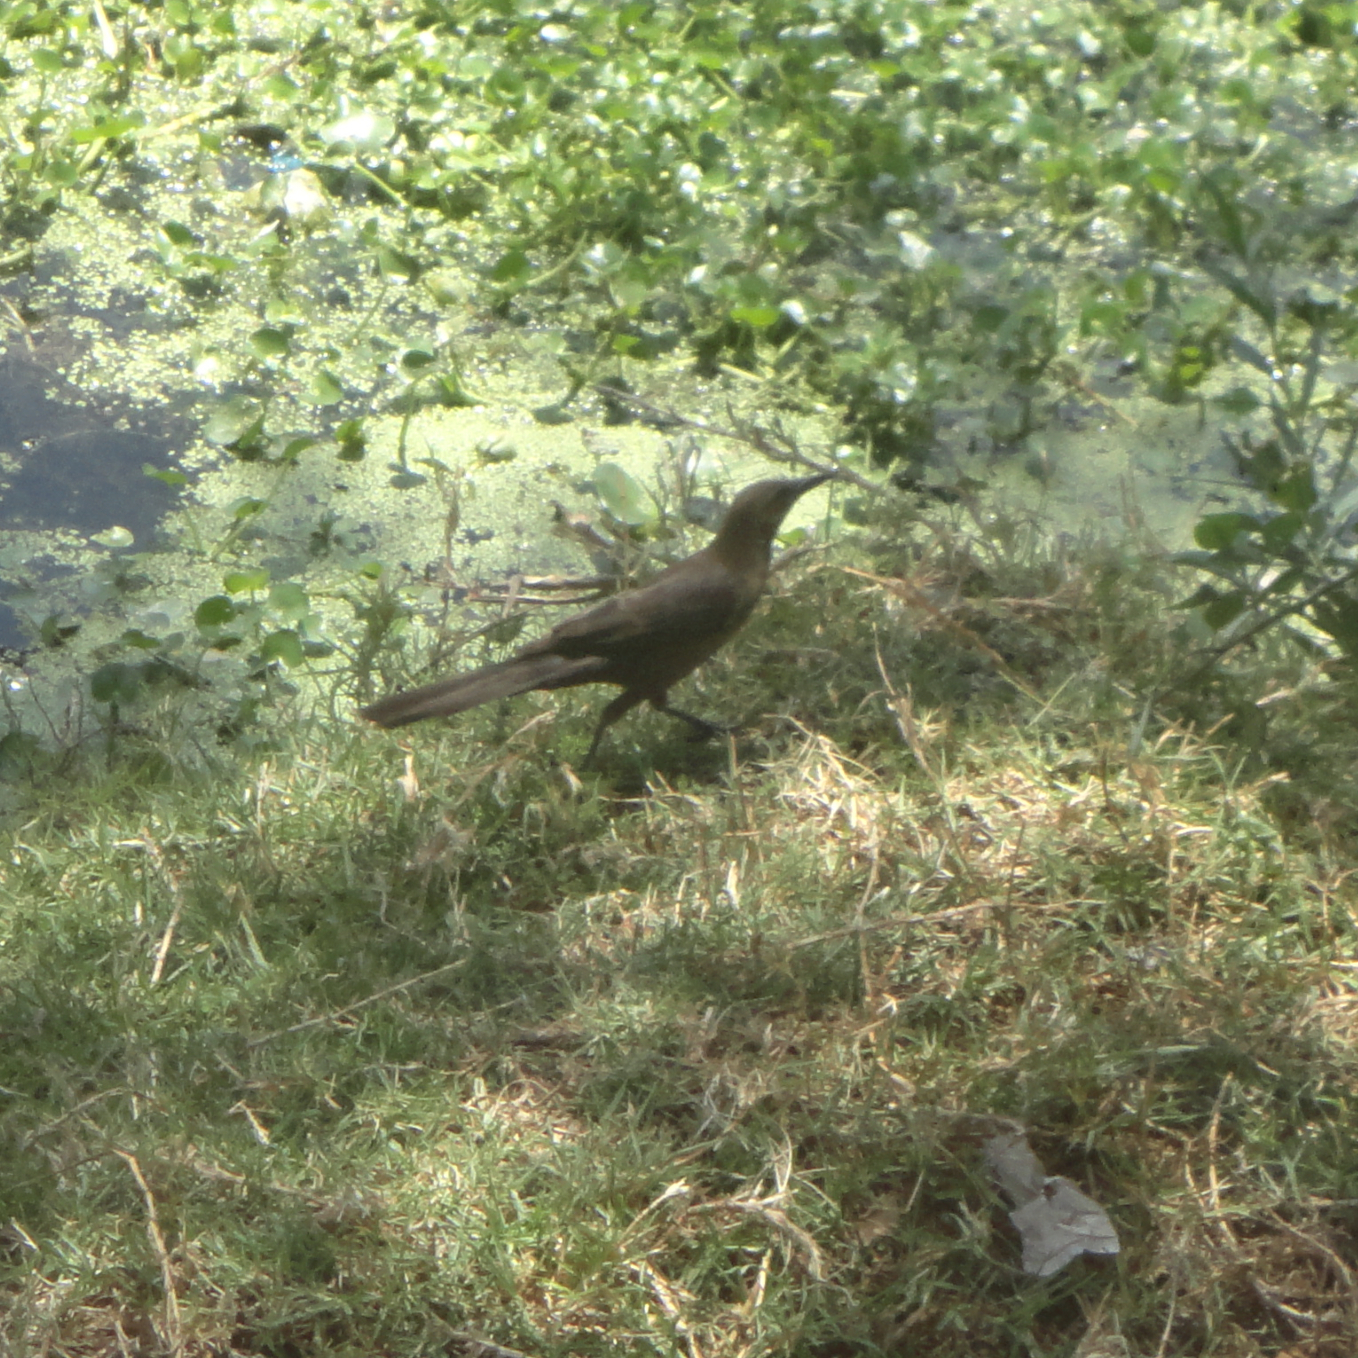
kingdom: Animalia
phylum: Chordata
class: Aves
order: Passeriformes
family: Icteridae
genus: Quiscalus
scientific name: Quiscalus mexicanus
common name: Great-tailed grackle
